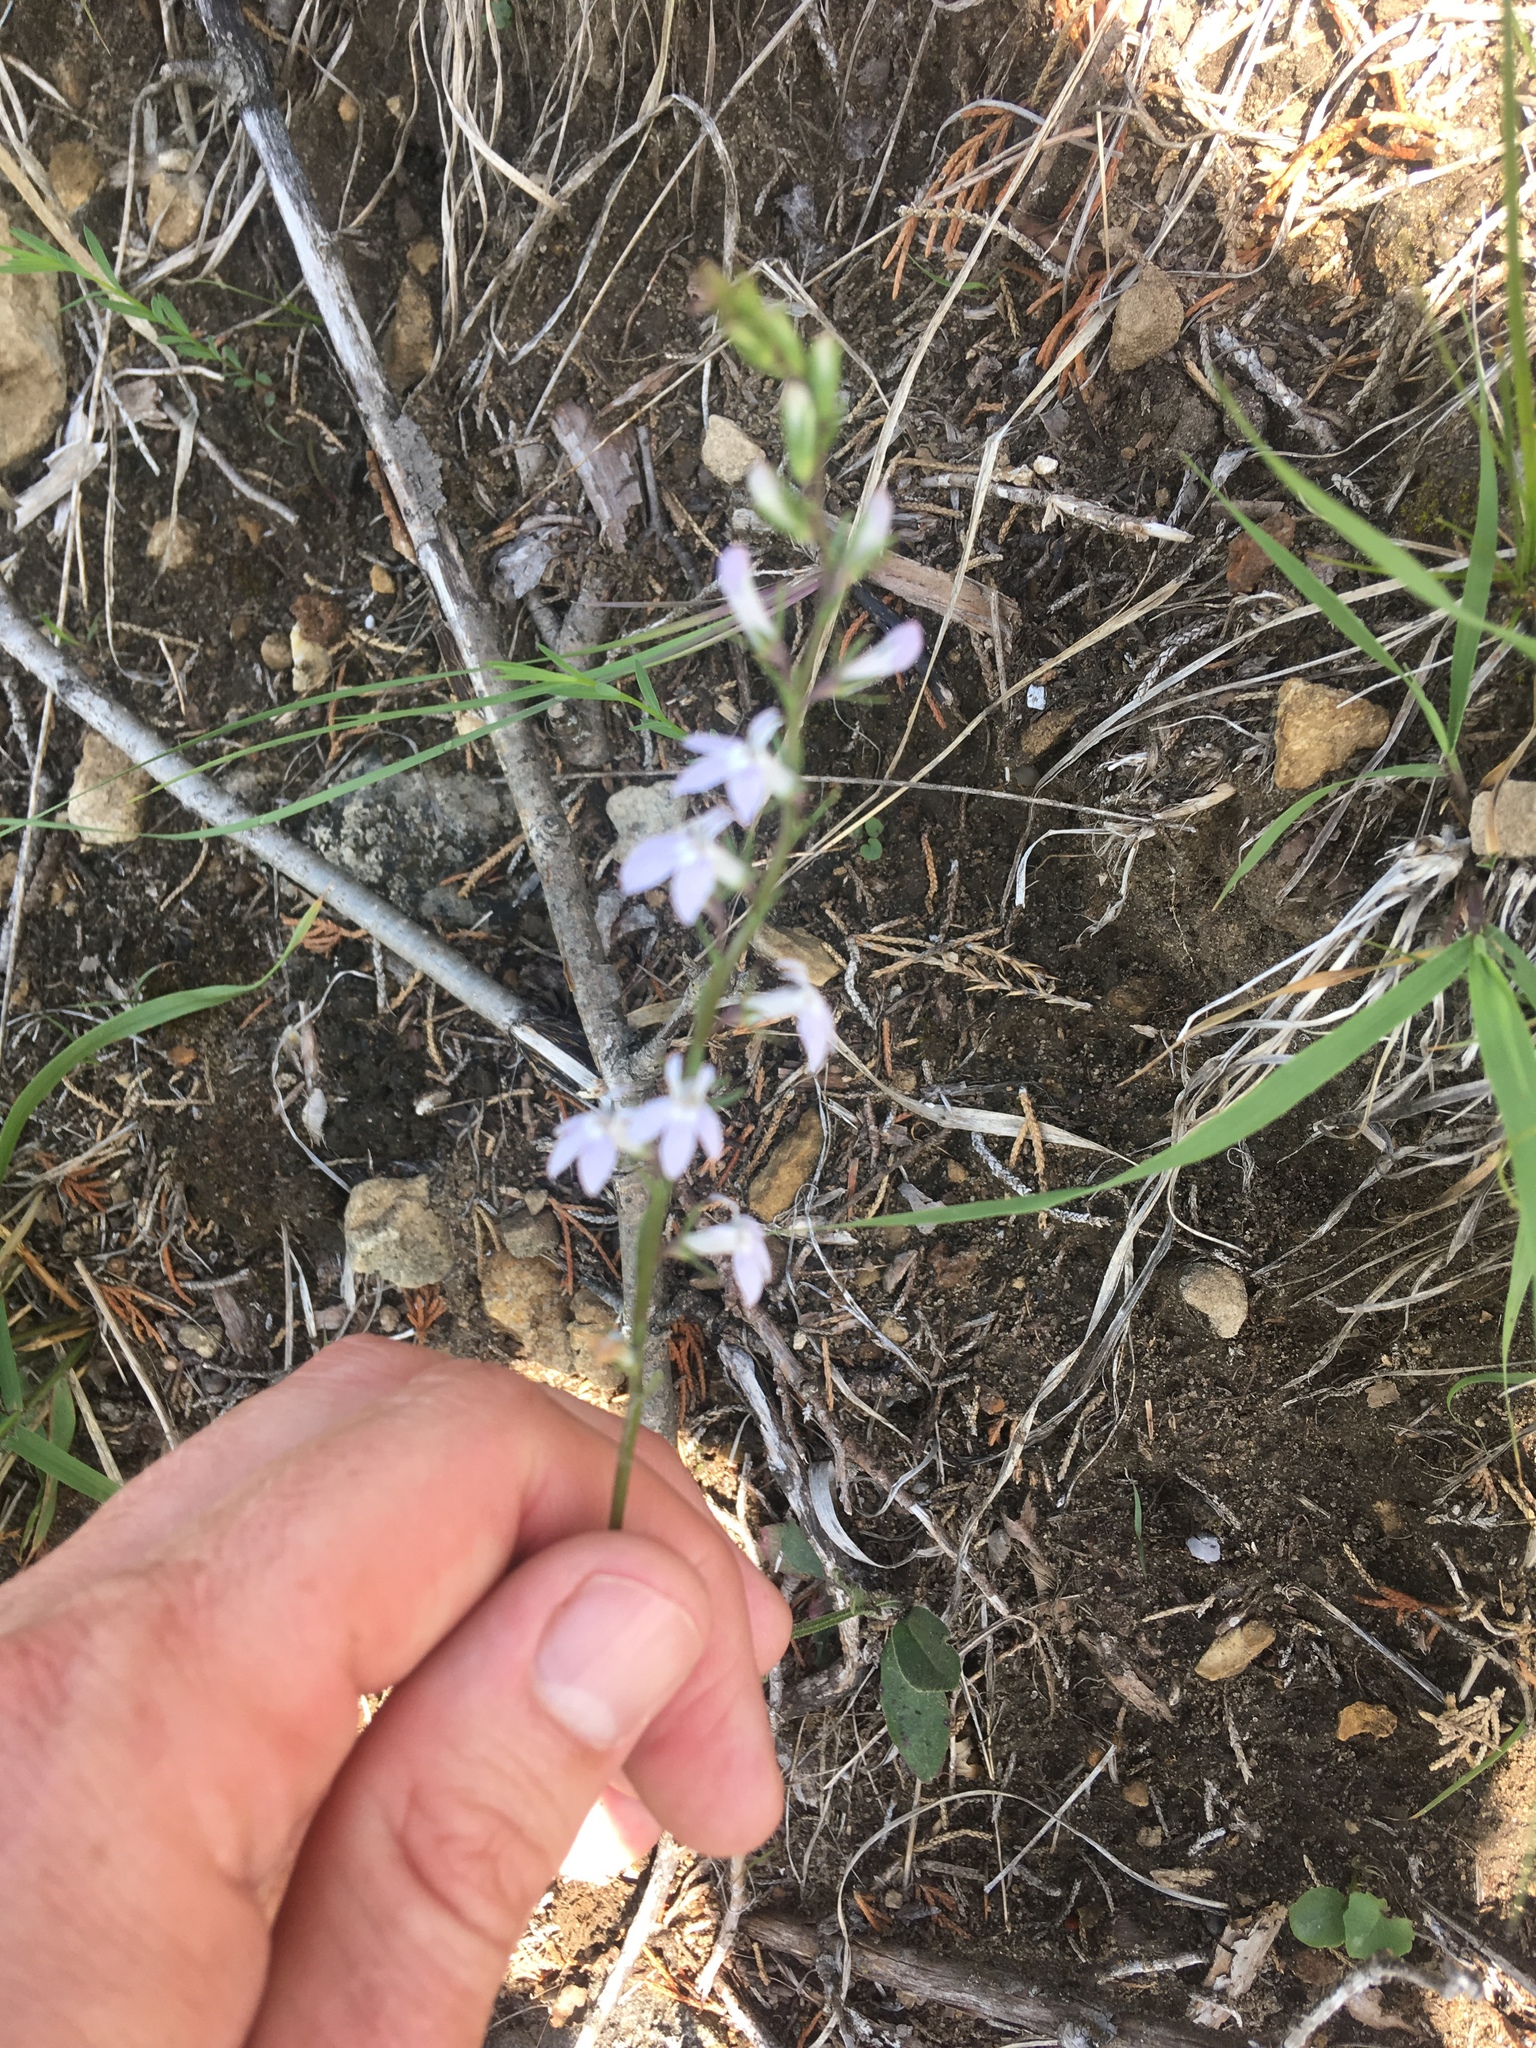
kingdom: Plantae
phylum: Tracheophyta
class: Magnoliopsida
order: Asterales
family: Campanulaceae
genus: Lobelia
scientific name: Lobelia spicata
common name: Pale-spike lobelia
